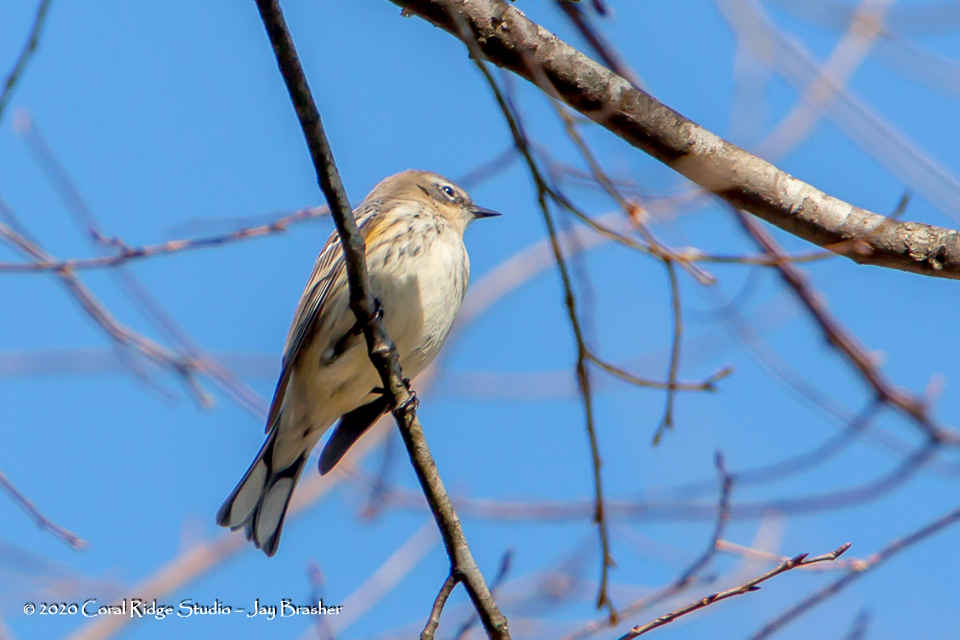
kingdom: Animalia
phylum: Chordata
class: Aves
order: Passeriformes
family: Parulidae
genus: Setophaga
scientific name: Setophaga coronata
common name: Myrtle warbler
